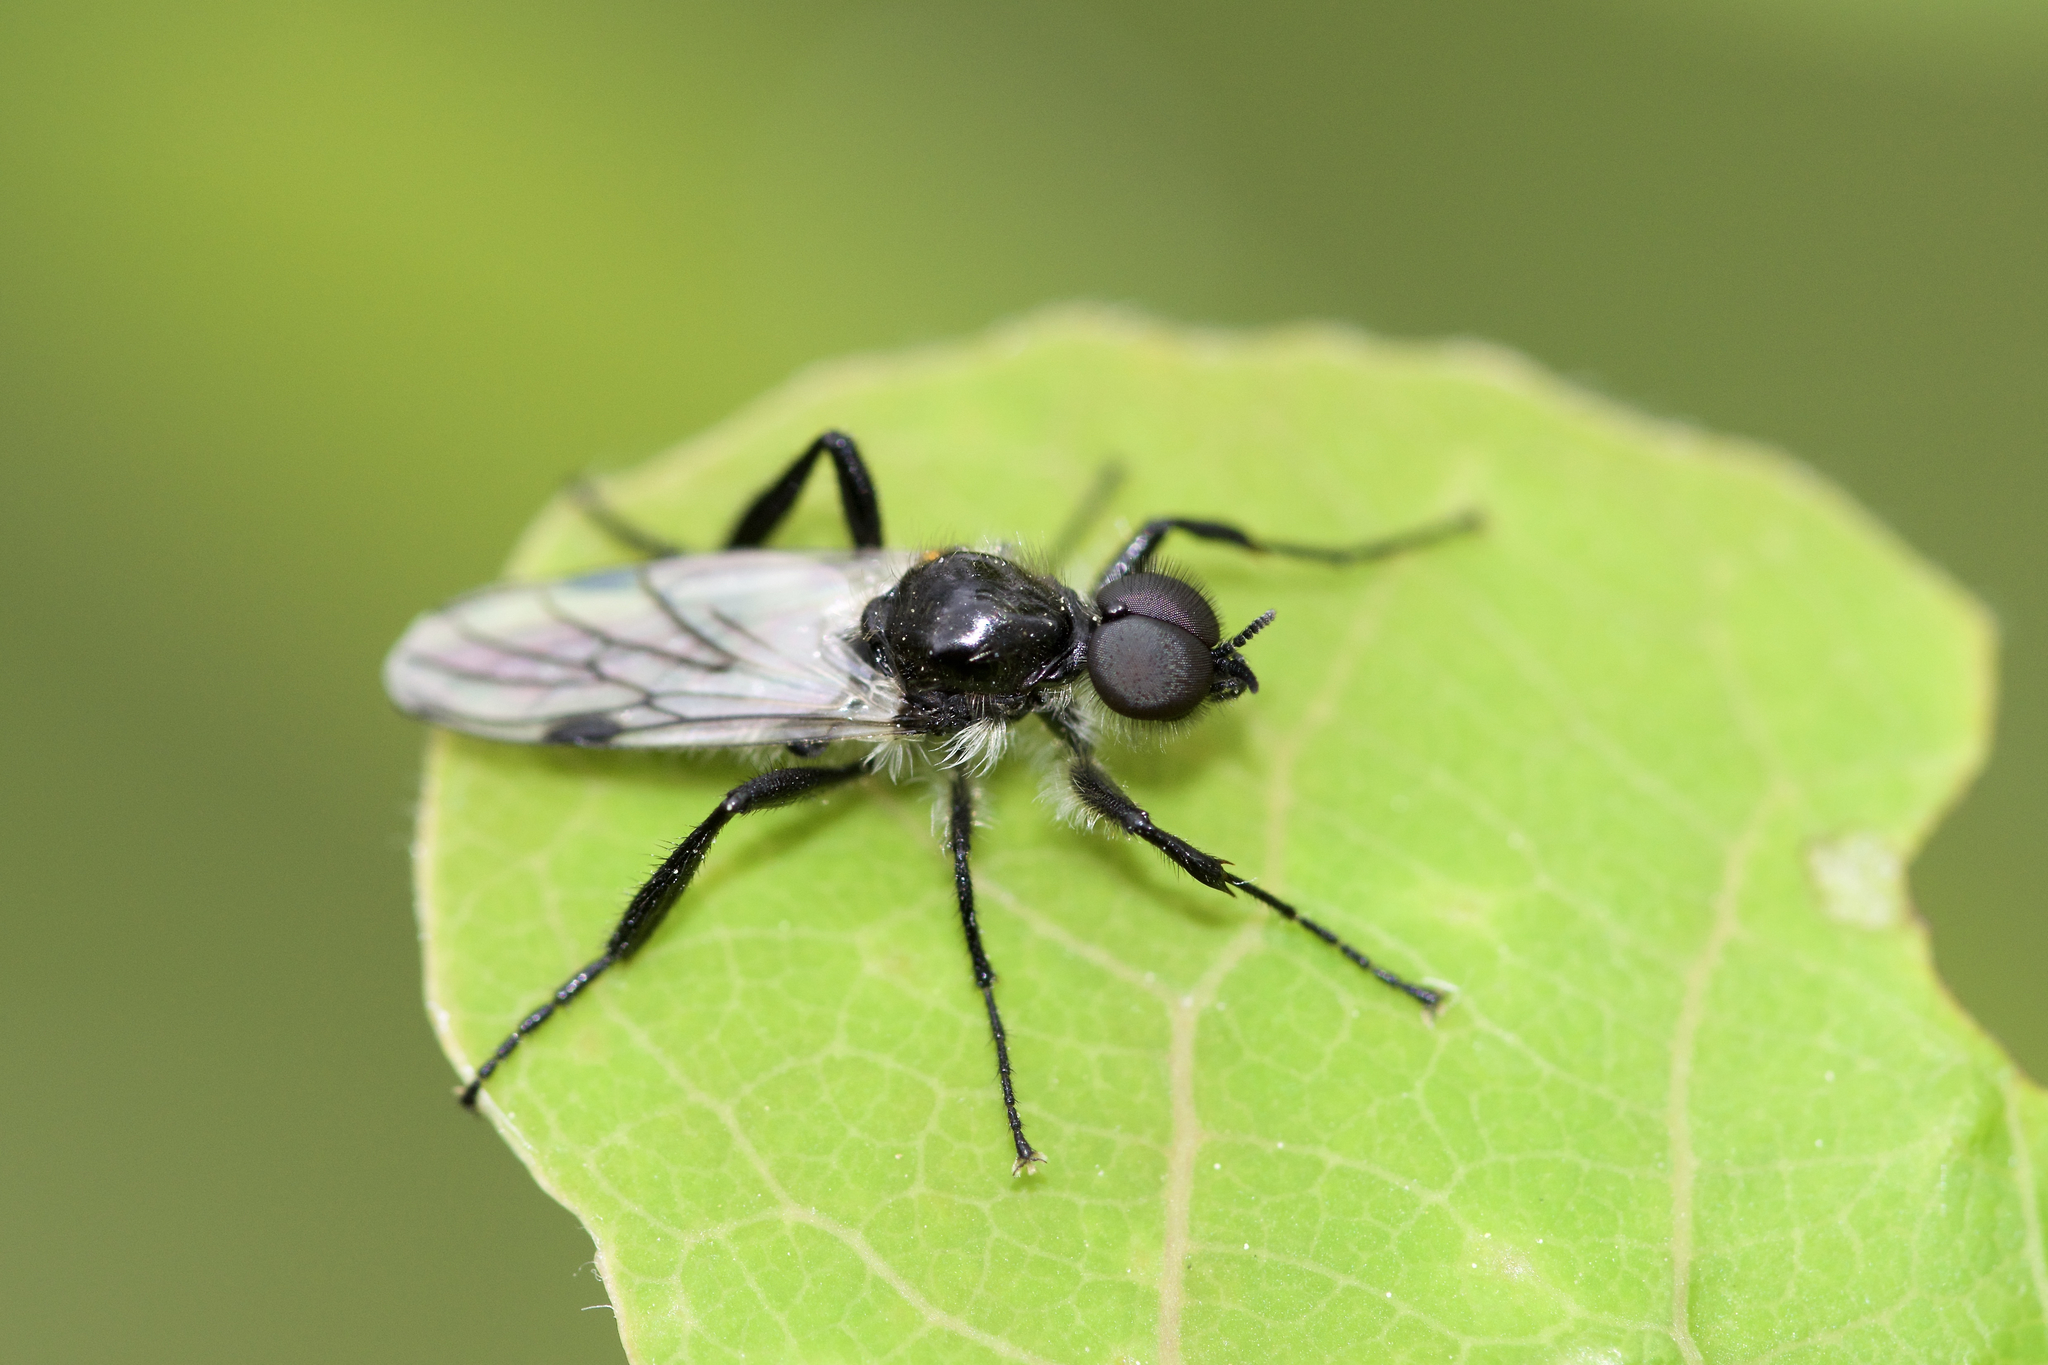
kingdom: Animalia
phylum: Arthropoda
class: Insecta
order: Diptera
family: Bibionidae
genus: Bibio
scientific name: Bibio albipennis
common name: White-winged march fly
